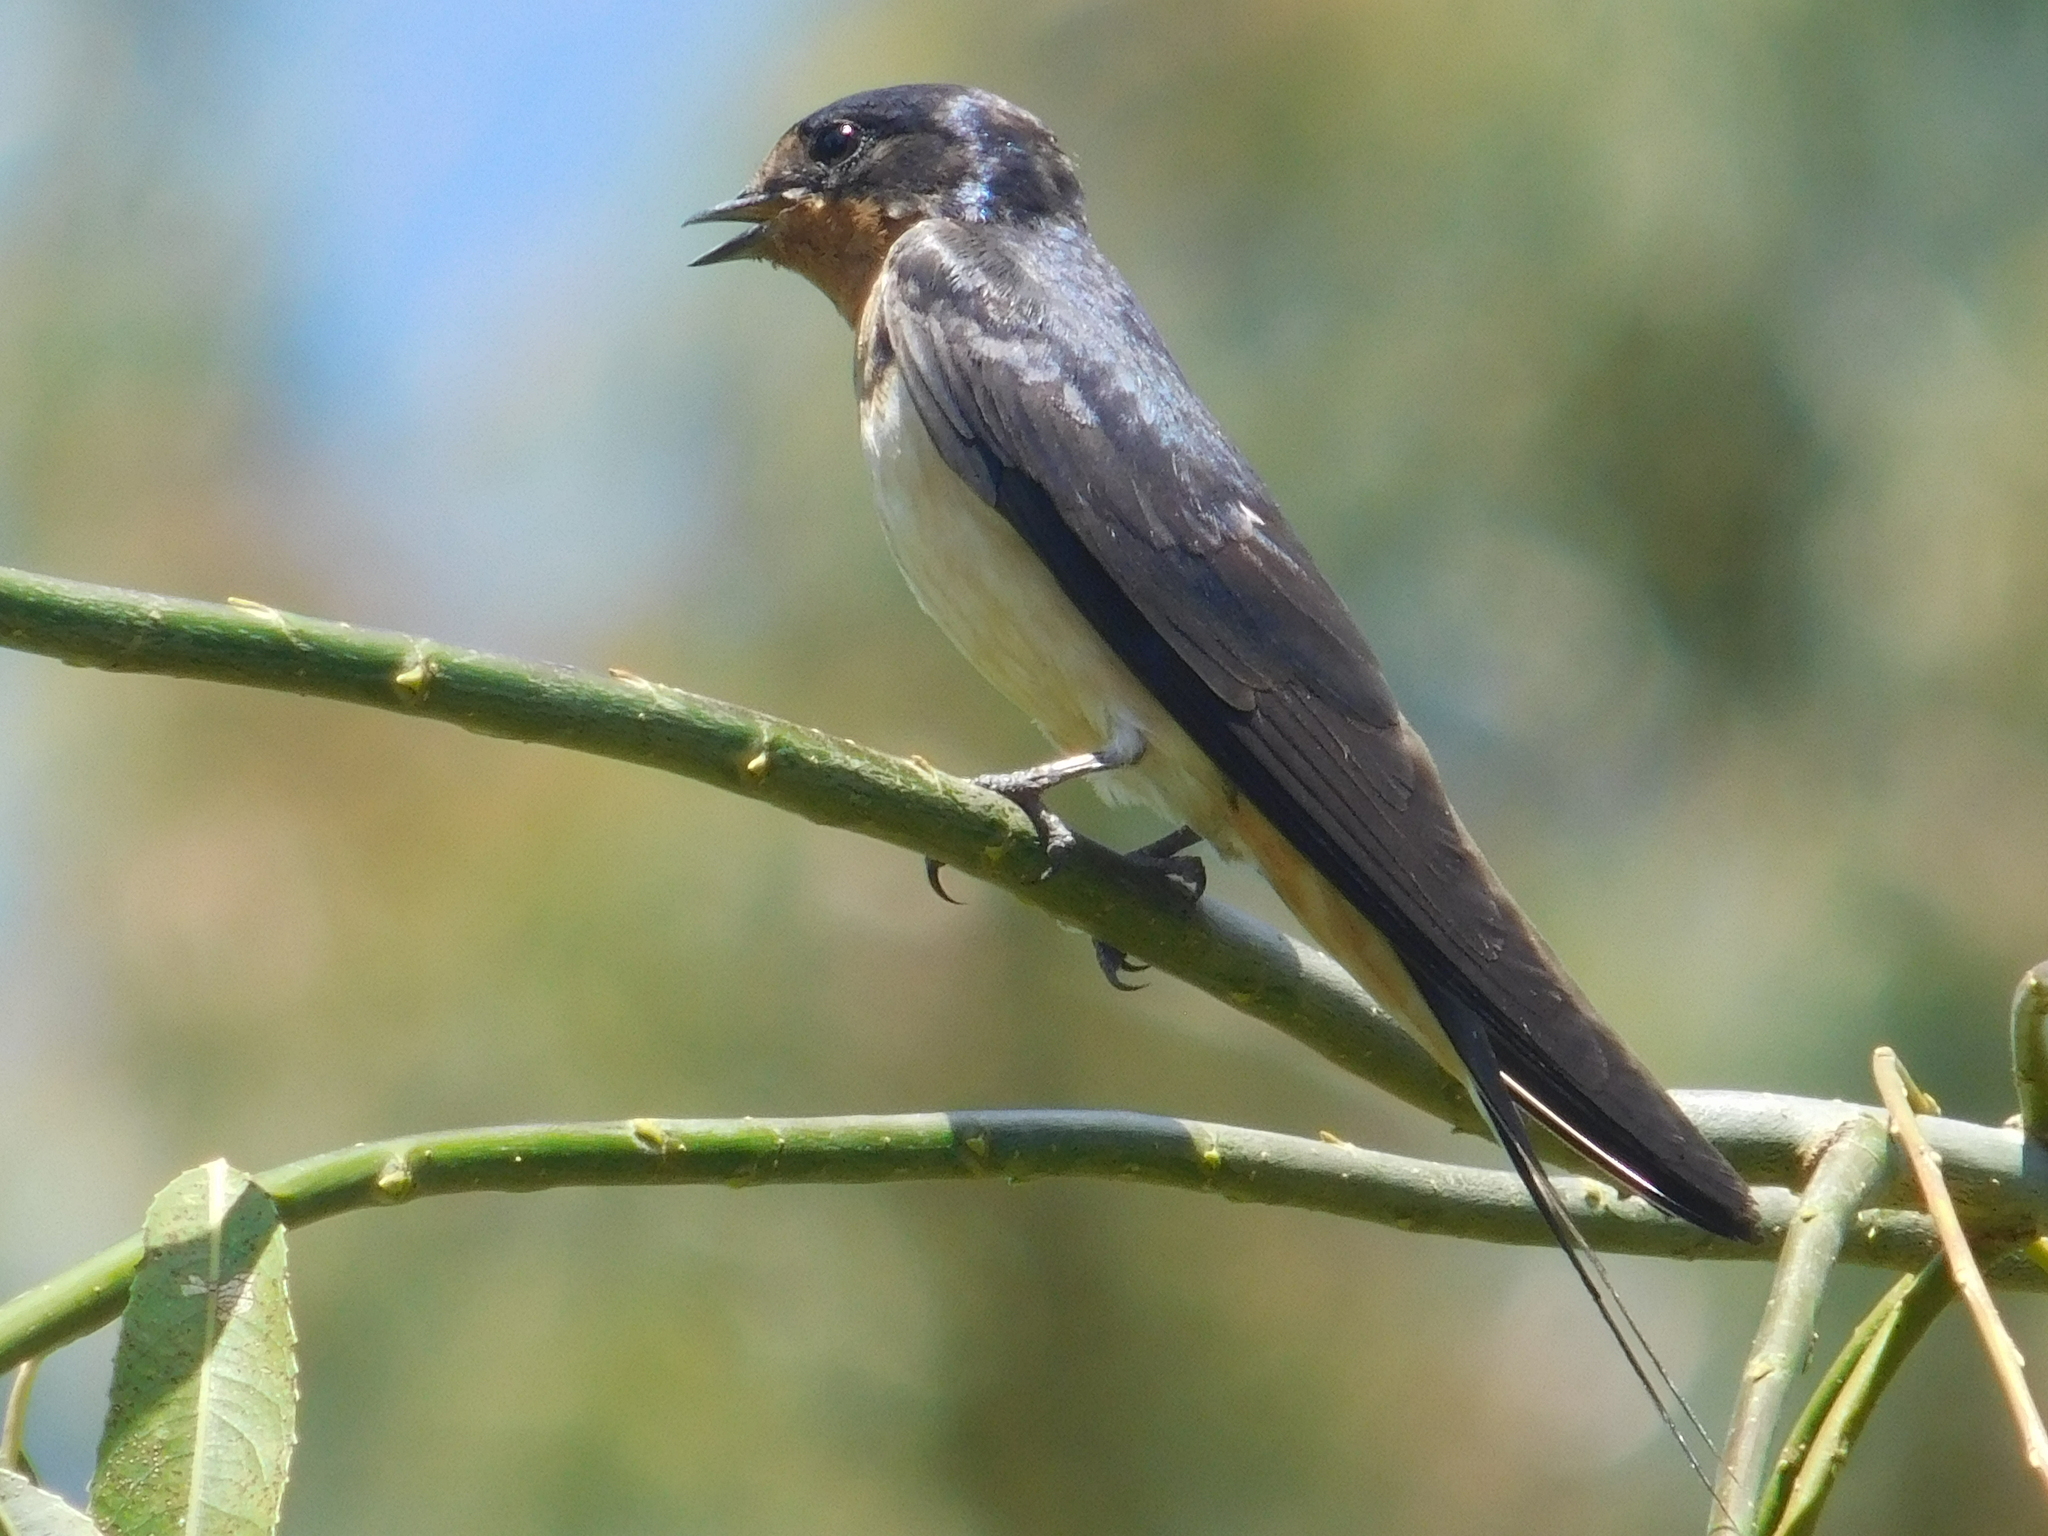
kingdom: Animalia
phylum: Chordata
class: Aves
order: Passeriformes
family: Hirundinidae
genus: Hirundo
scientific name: Hirundo rustica
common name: Barn swallow
